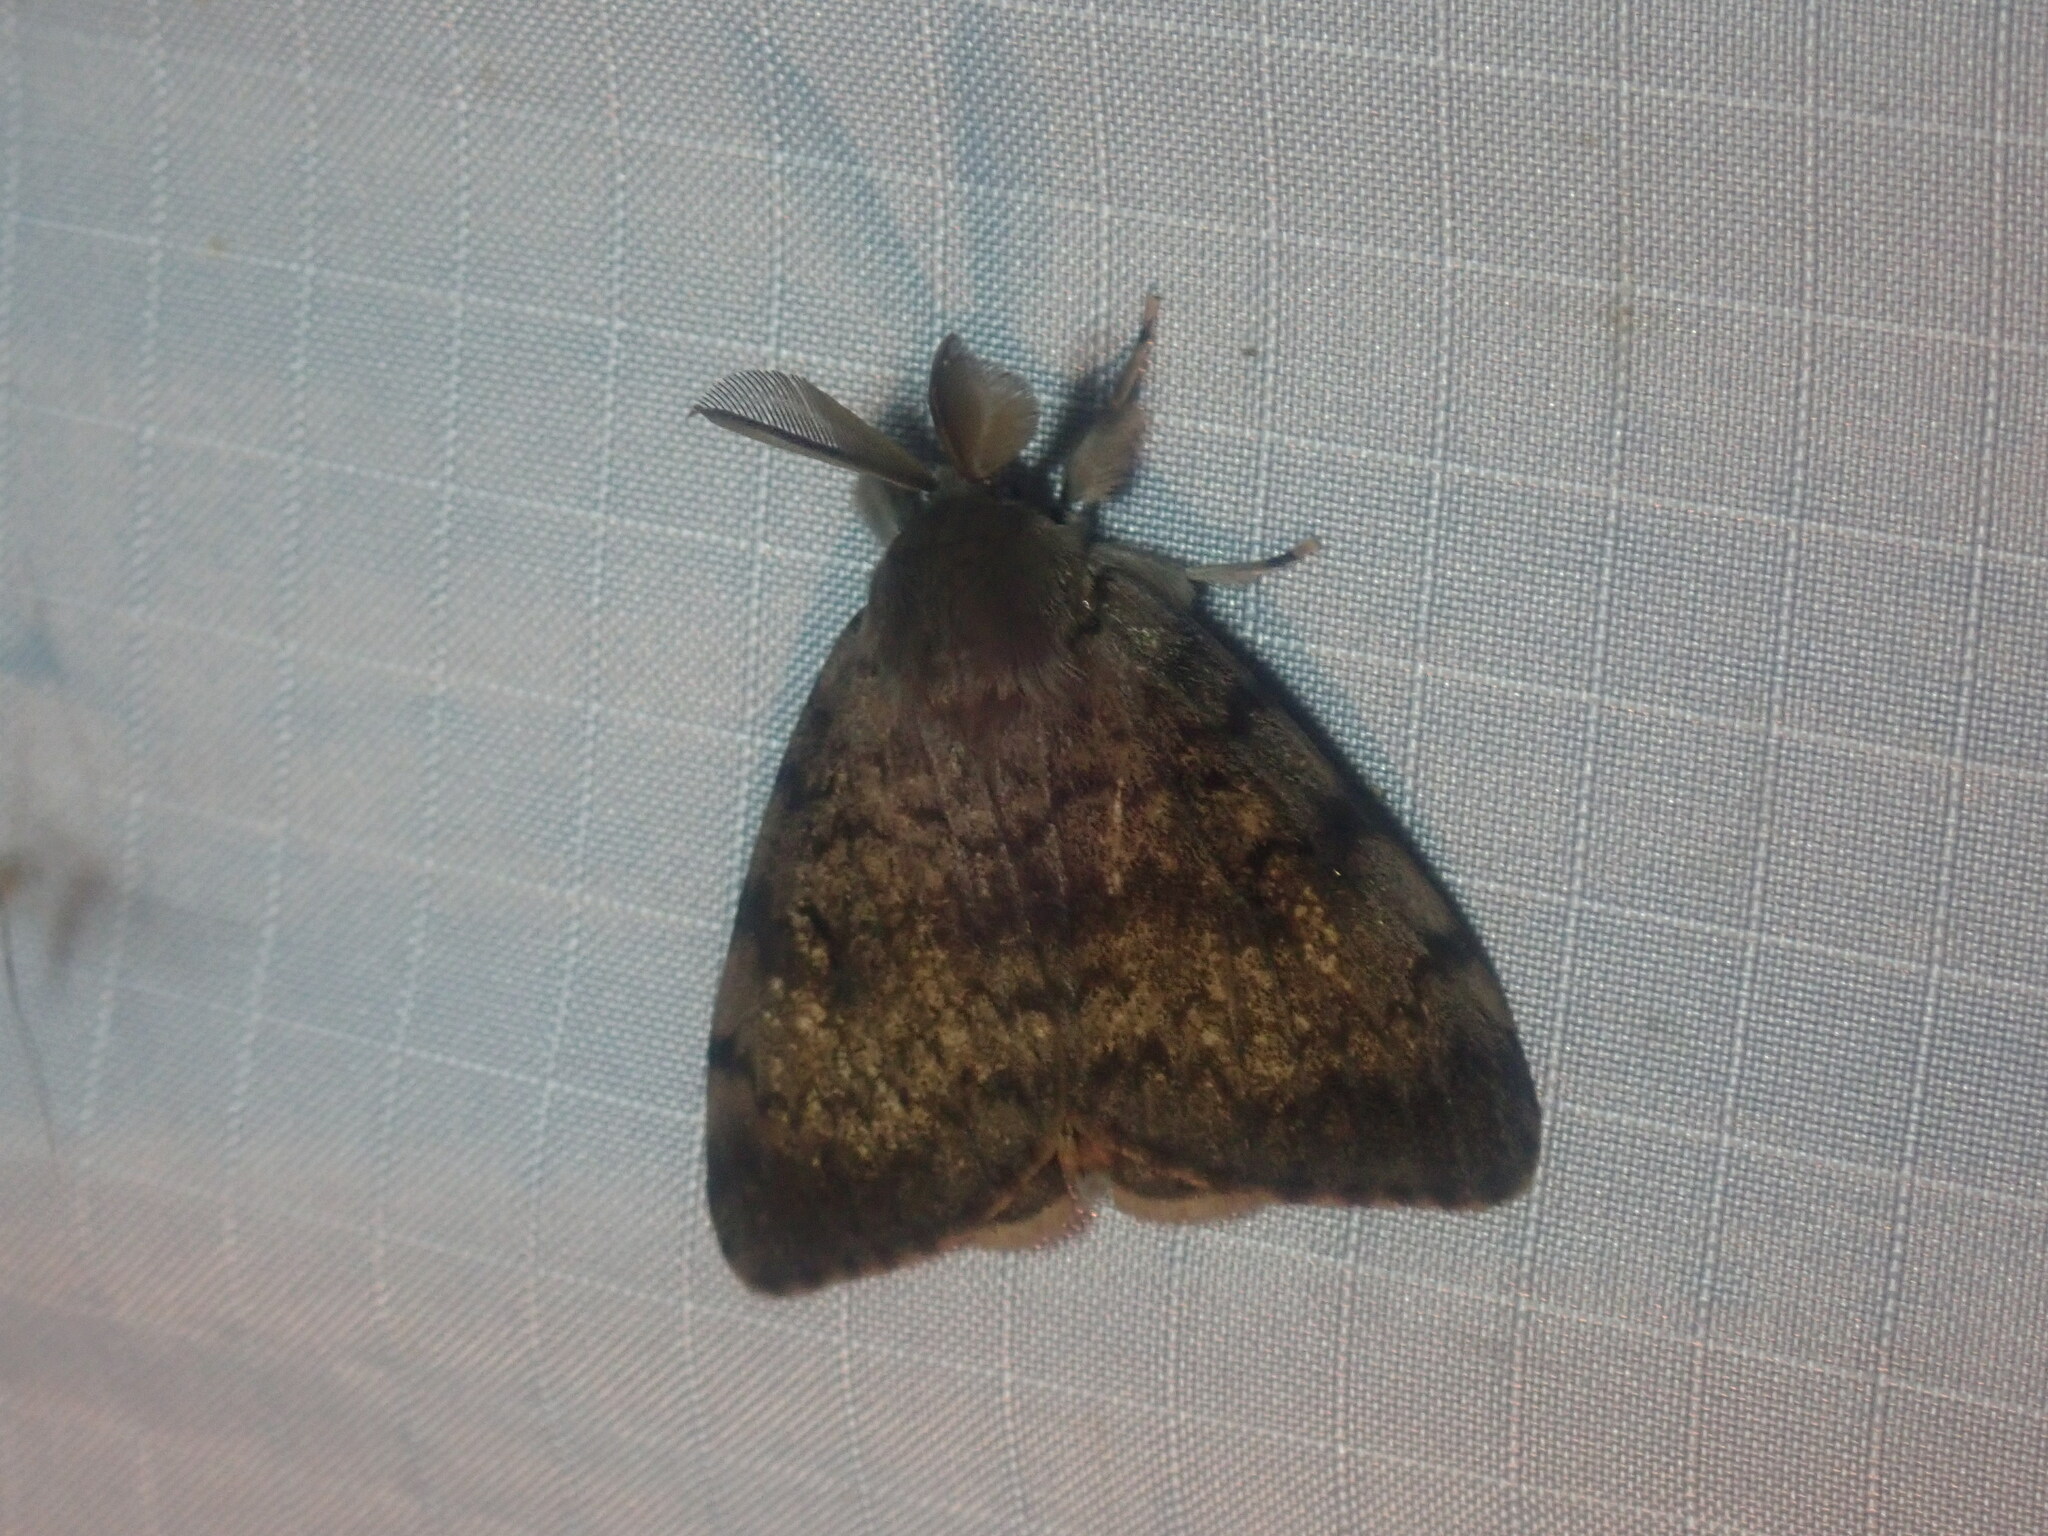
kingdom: Animalia
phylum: Arthropoda
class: Insecta
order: Lepidoptera
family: Erebidae
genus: Lymantria
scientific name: Lymantria dispar
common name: Gypsy moth
